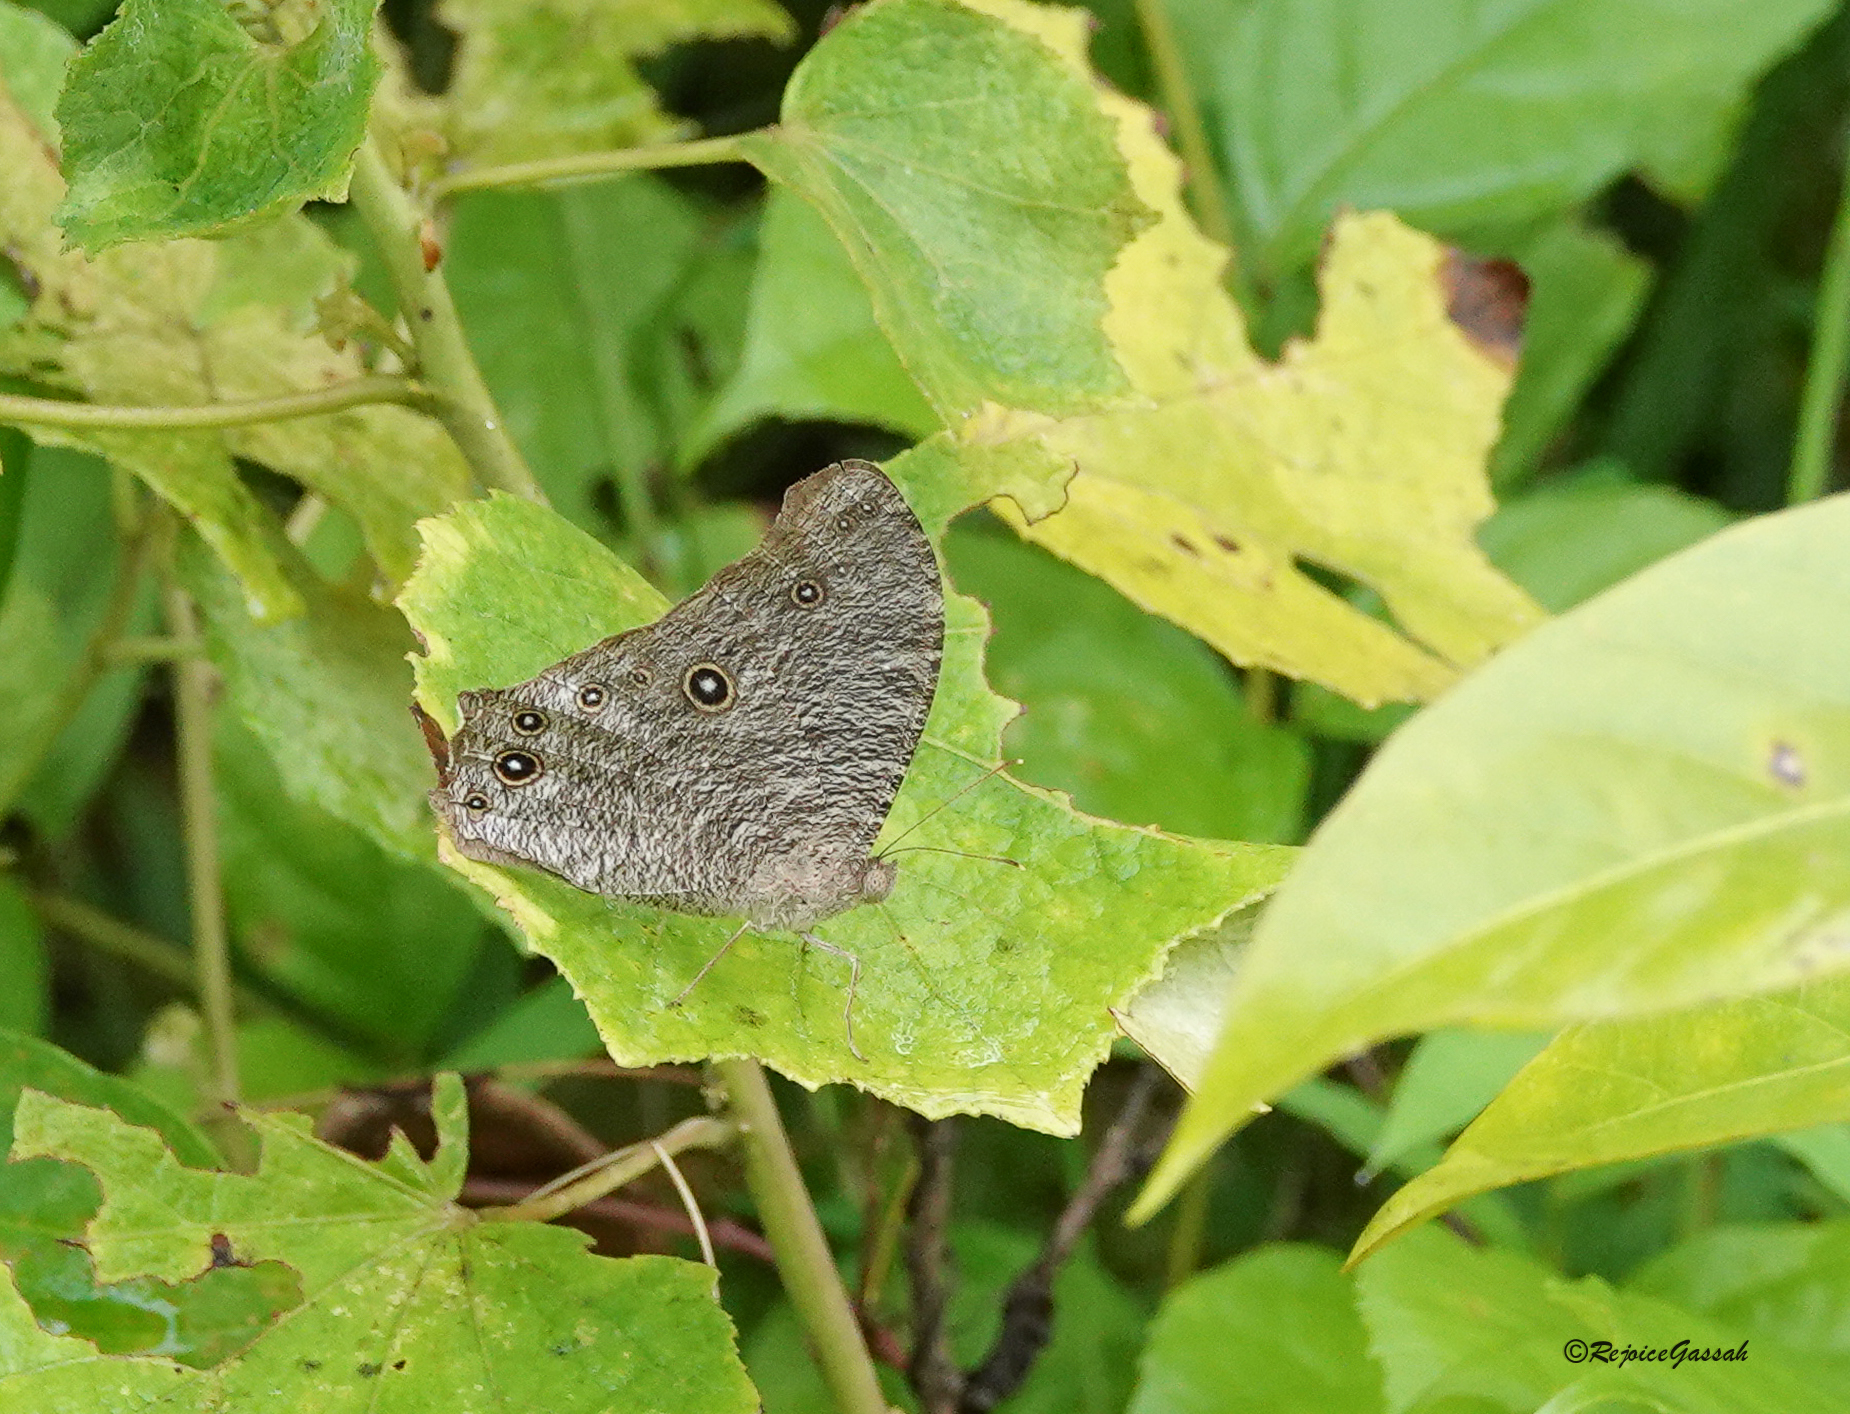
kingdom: Animalia
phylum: Arthropoda
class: Insecta
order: Lepidoptera
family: Nymphalidae
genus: Melanitis
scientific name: Melanitis leda
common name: Twilight brown
